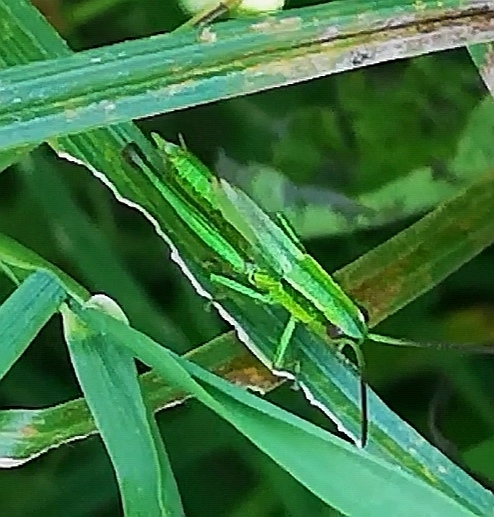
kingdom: Animalia
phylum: Arthropoda
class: Insecta
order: Orthoptera
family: Acrididae
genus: Euthystira
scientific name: Euthystira brachyptera
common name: Small gold grasshopper
